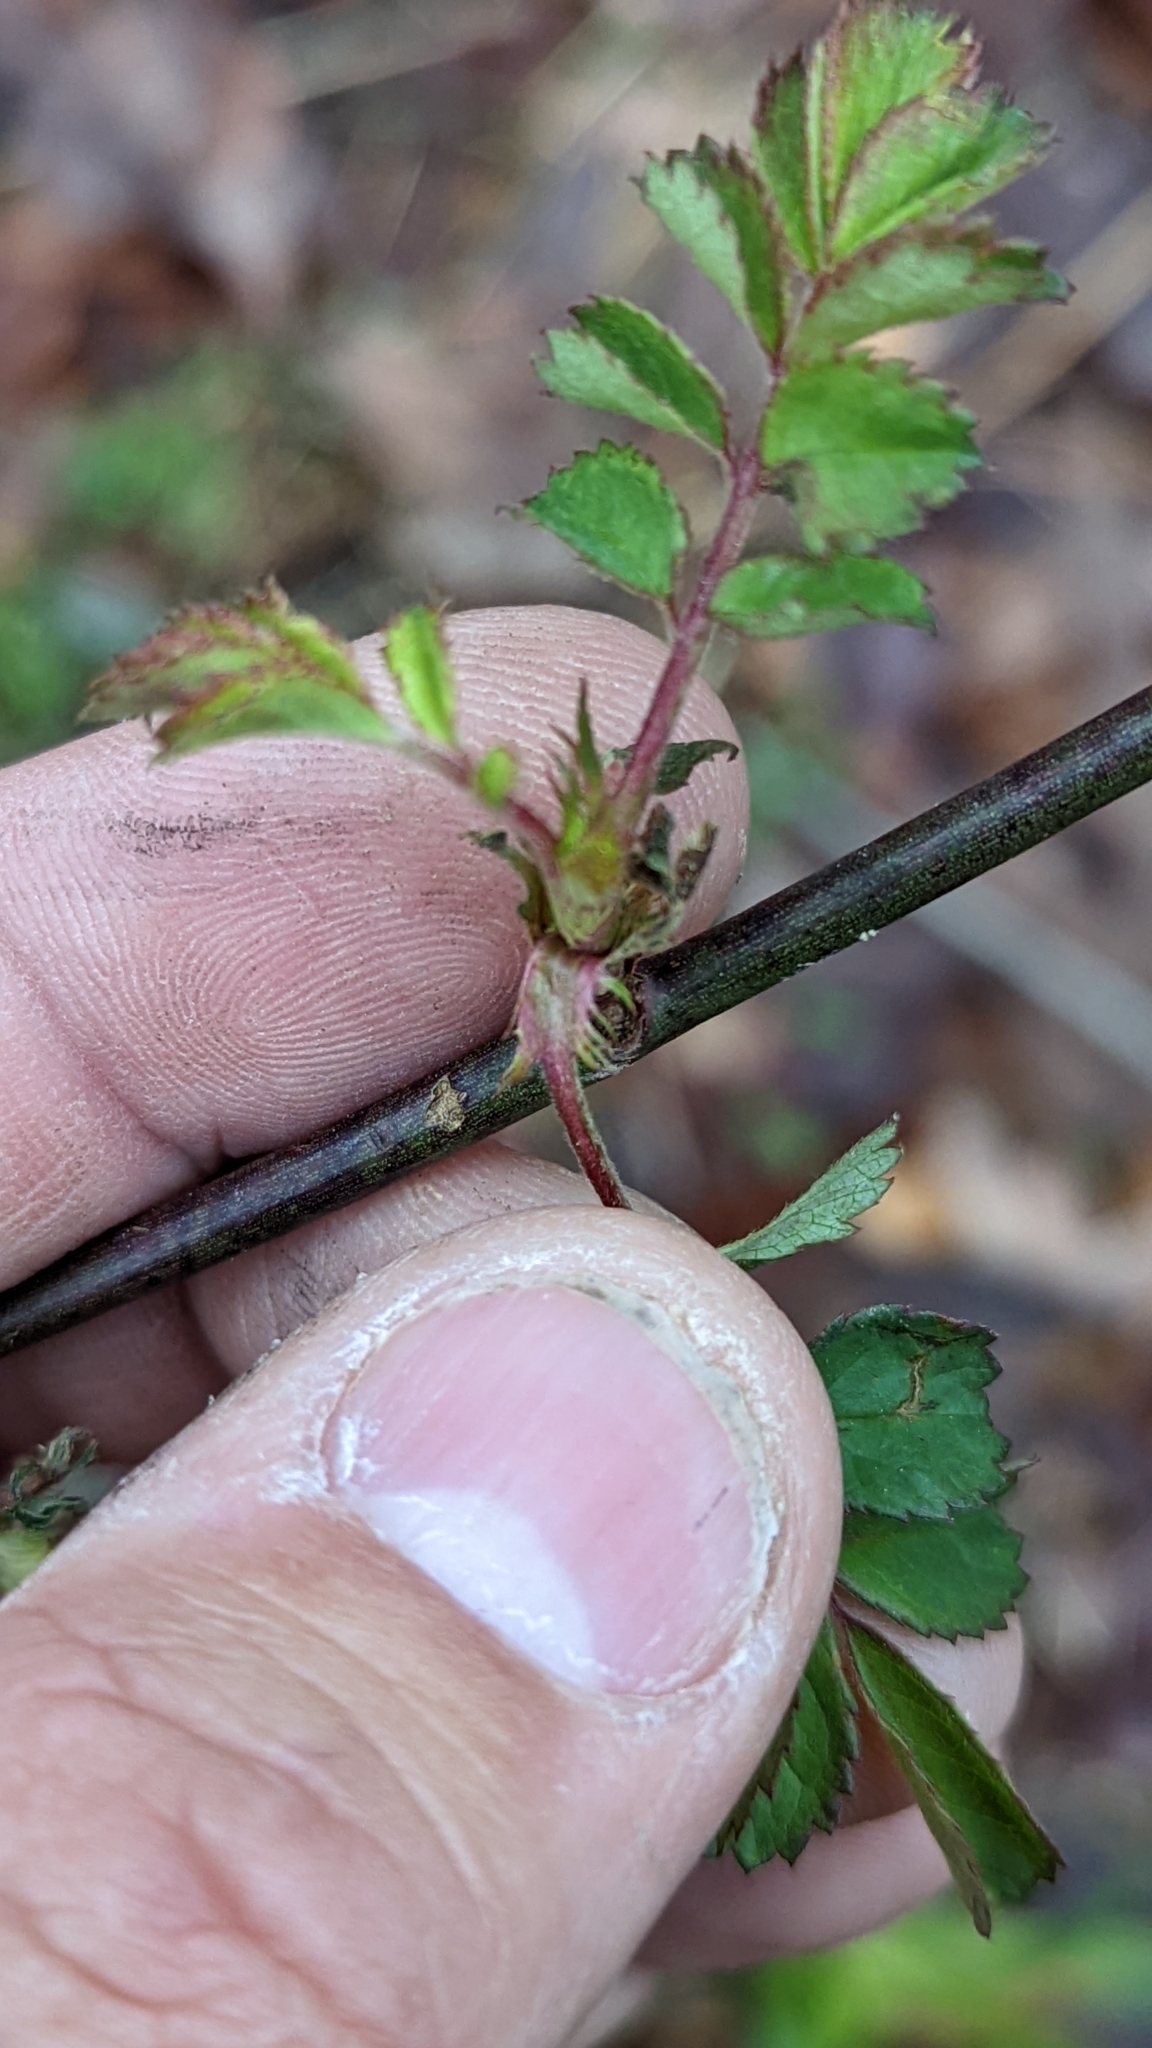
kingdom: Plantae
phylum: Tracheophyta
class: Magnoliopsida
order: Rosales
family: Rosaceae
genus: Rosa
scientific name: Rosa multiflora
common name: Multiflora rose
